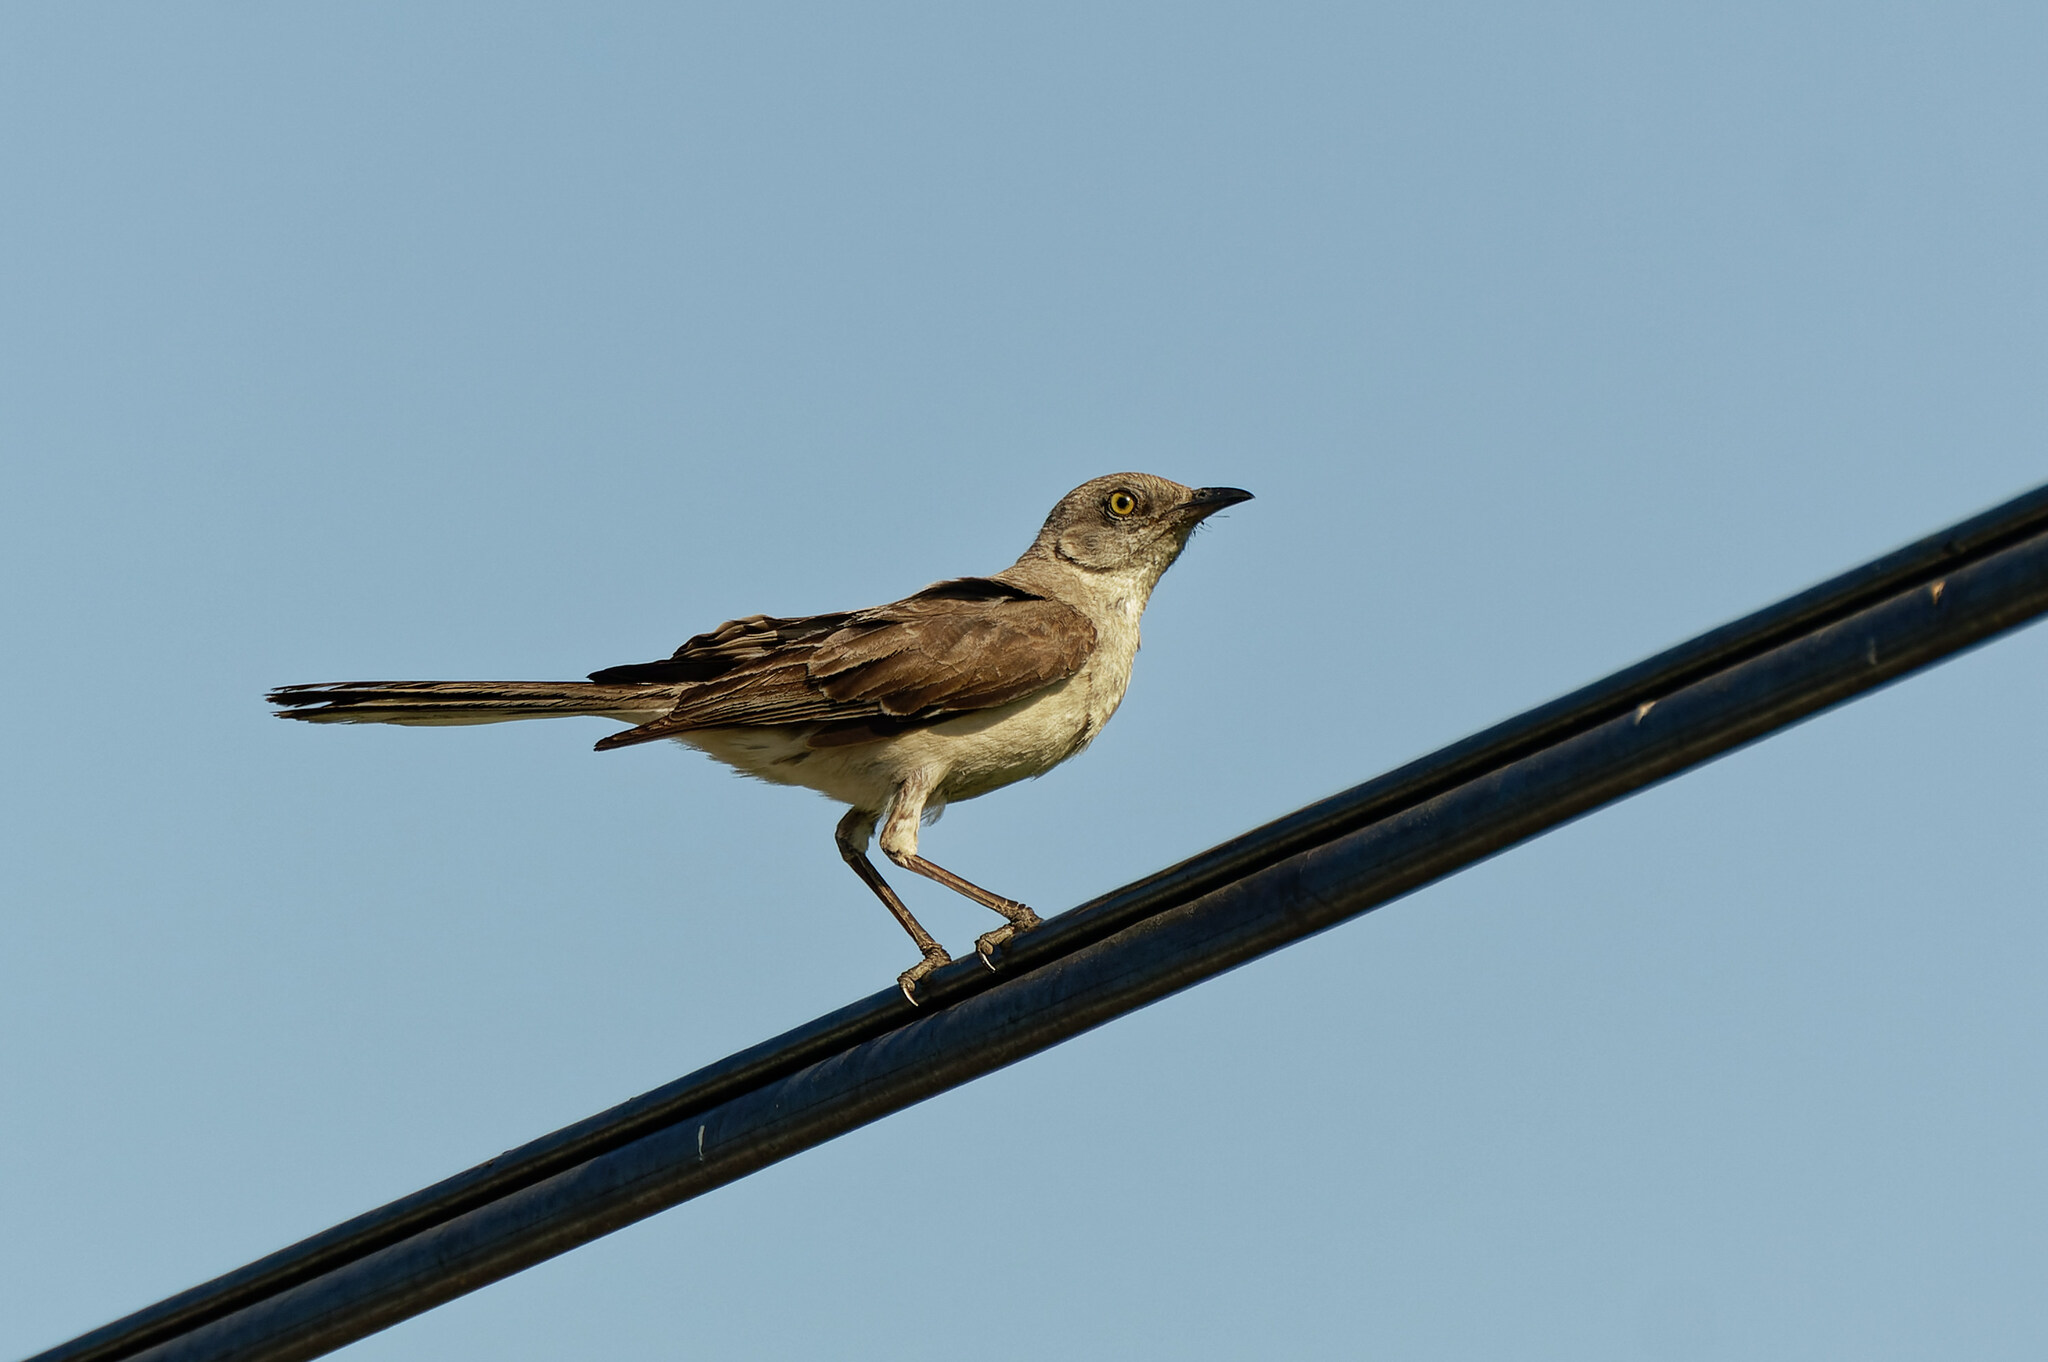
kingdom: Animalia
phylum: Chordata
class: Aves
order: Passeriformes
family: Mimidae
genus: Mimus
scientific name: Mimus polyglottos
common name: Northern mockingbird
